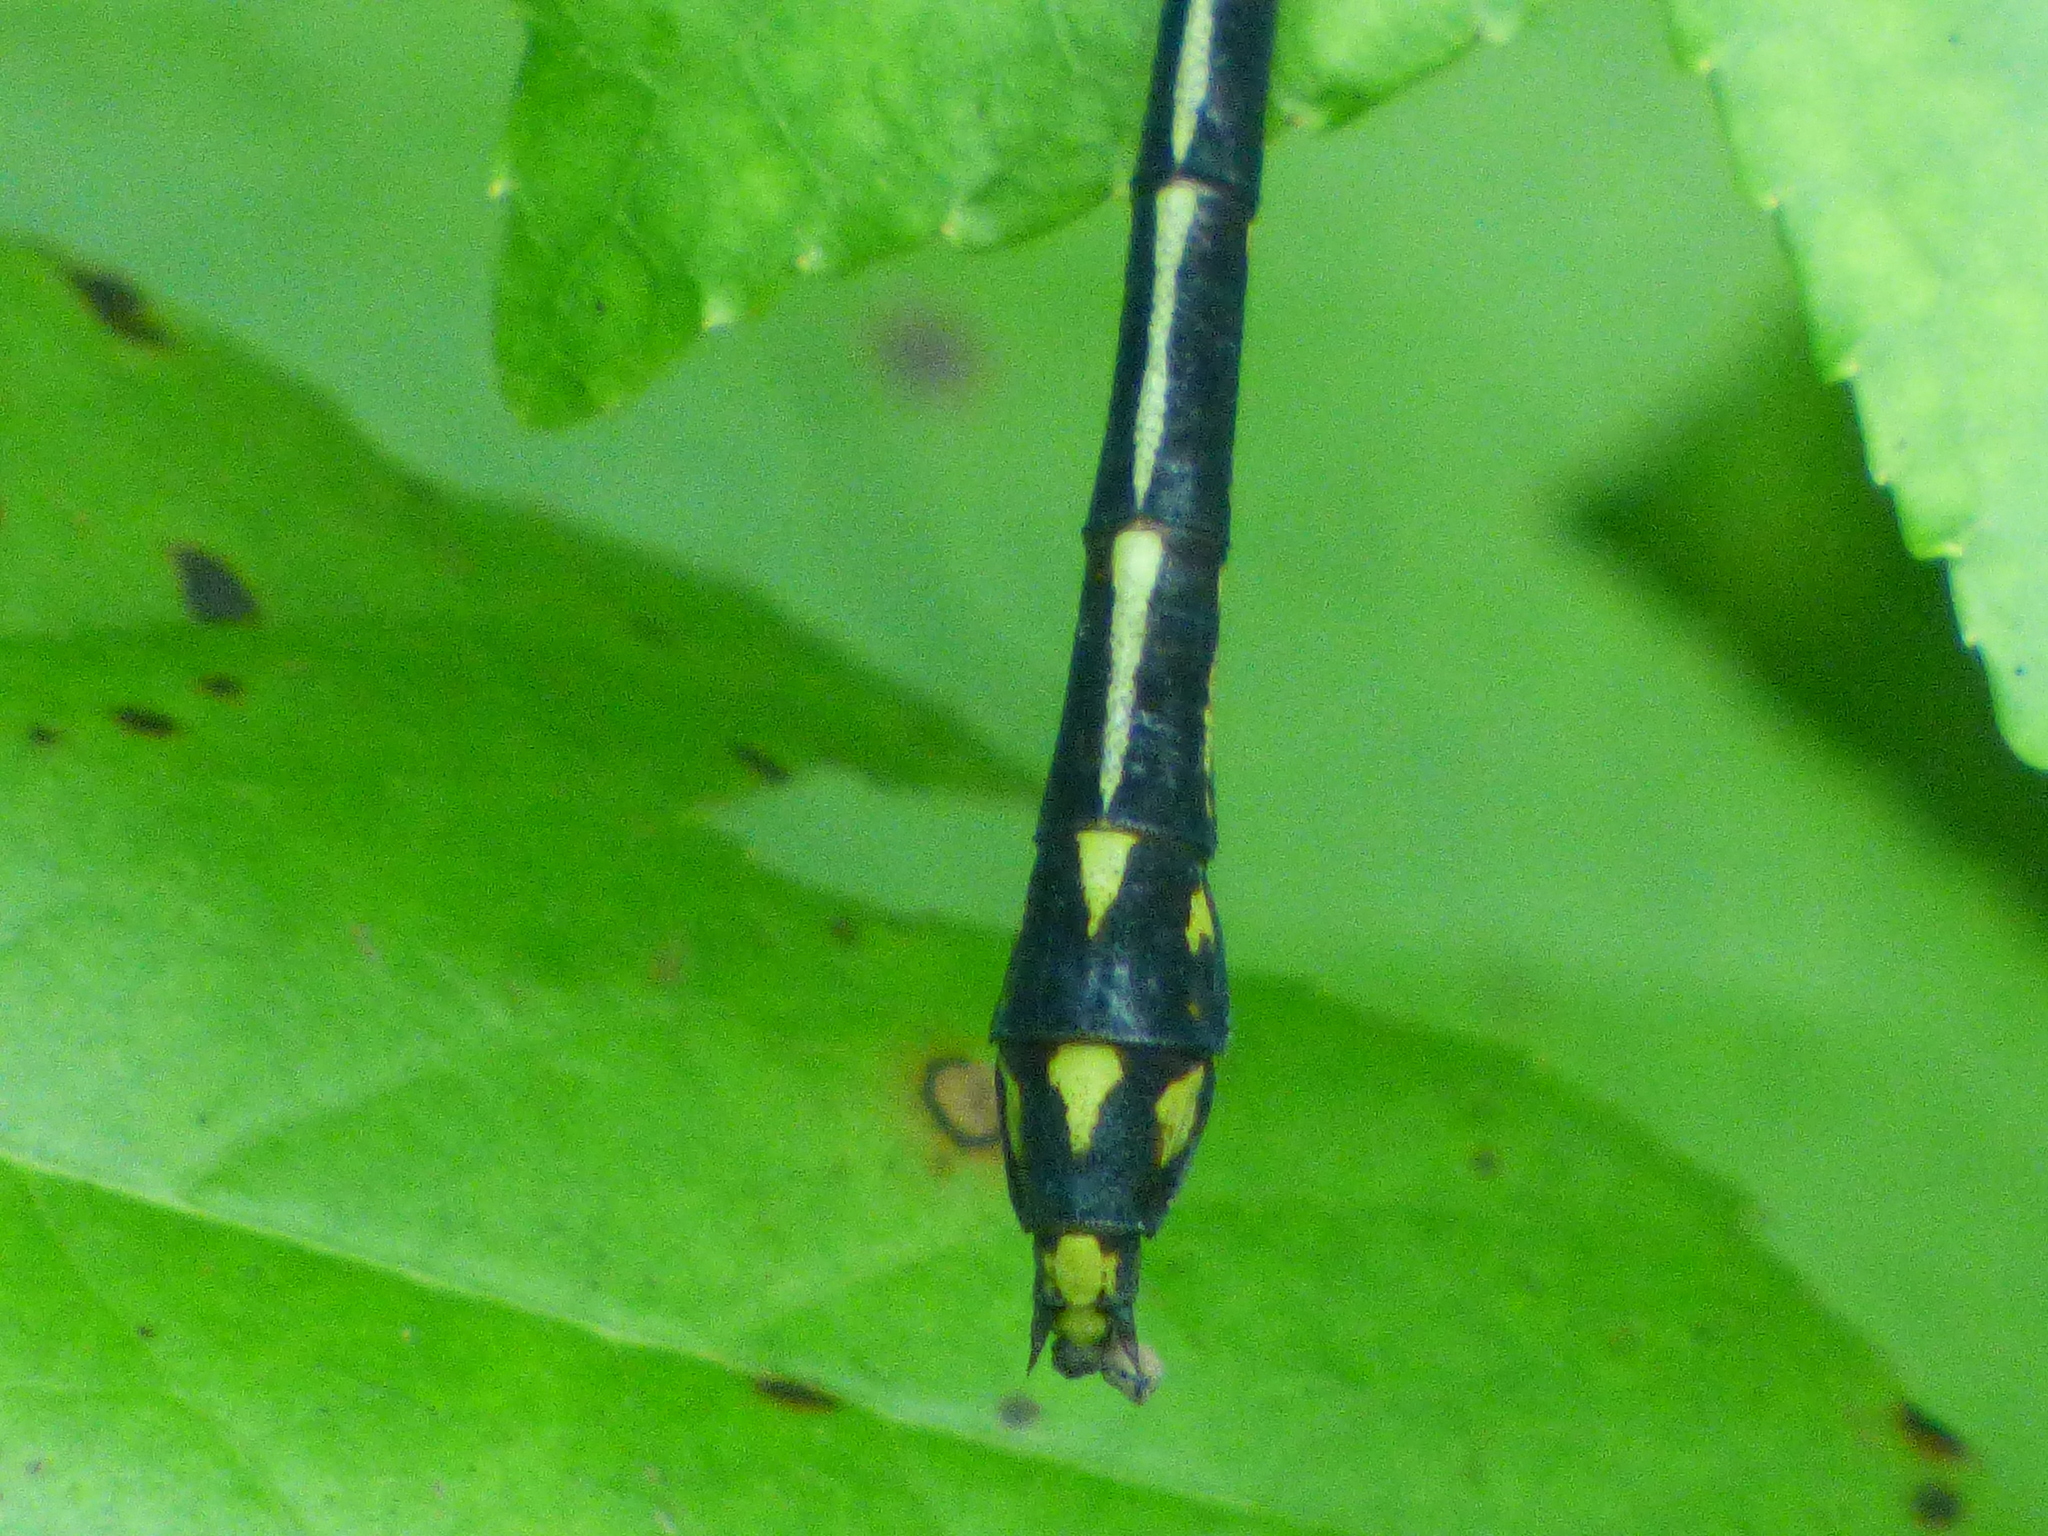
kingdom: Animalia
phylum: Arthropoda
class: Insecta
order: Odonata
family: Gomphidae
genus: Dromogomphus
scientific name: Dromogomphus spinosus
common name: Black-shouldered spinyleg
